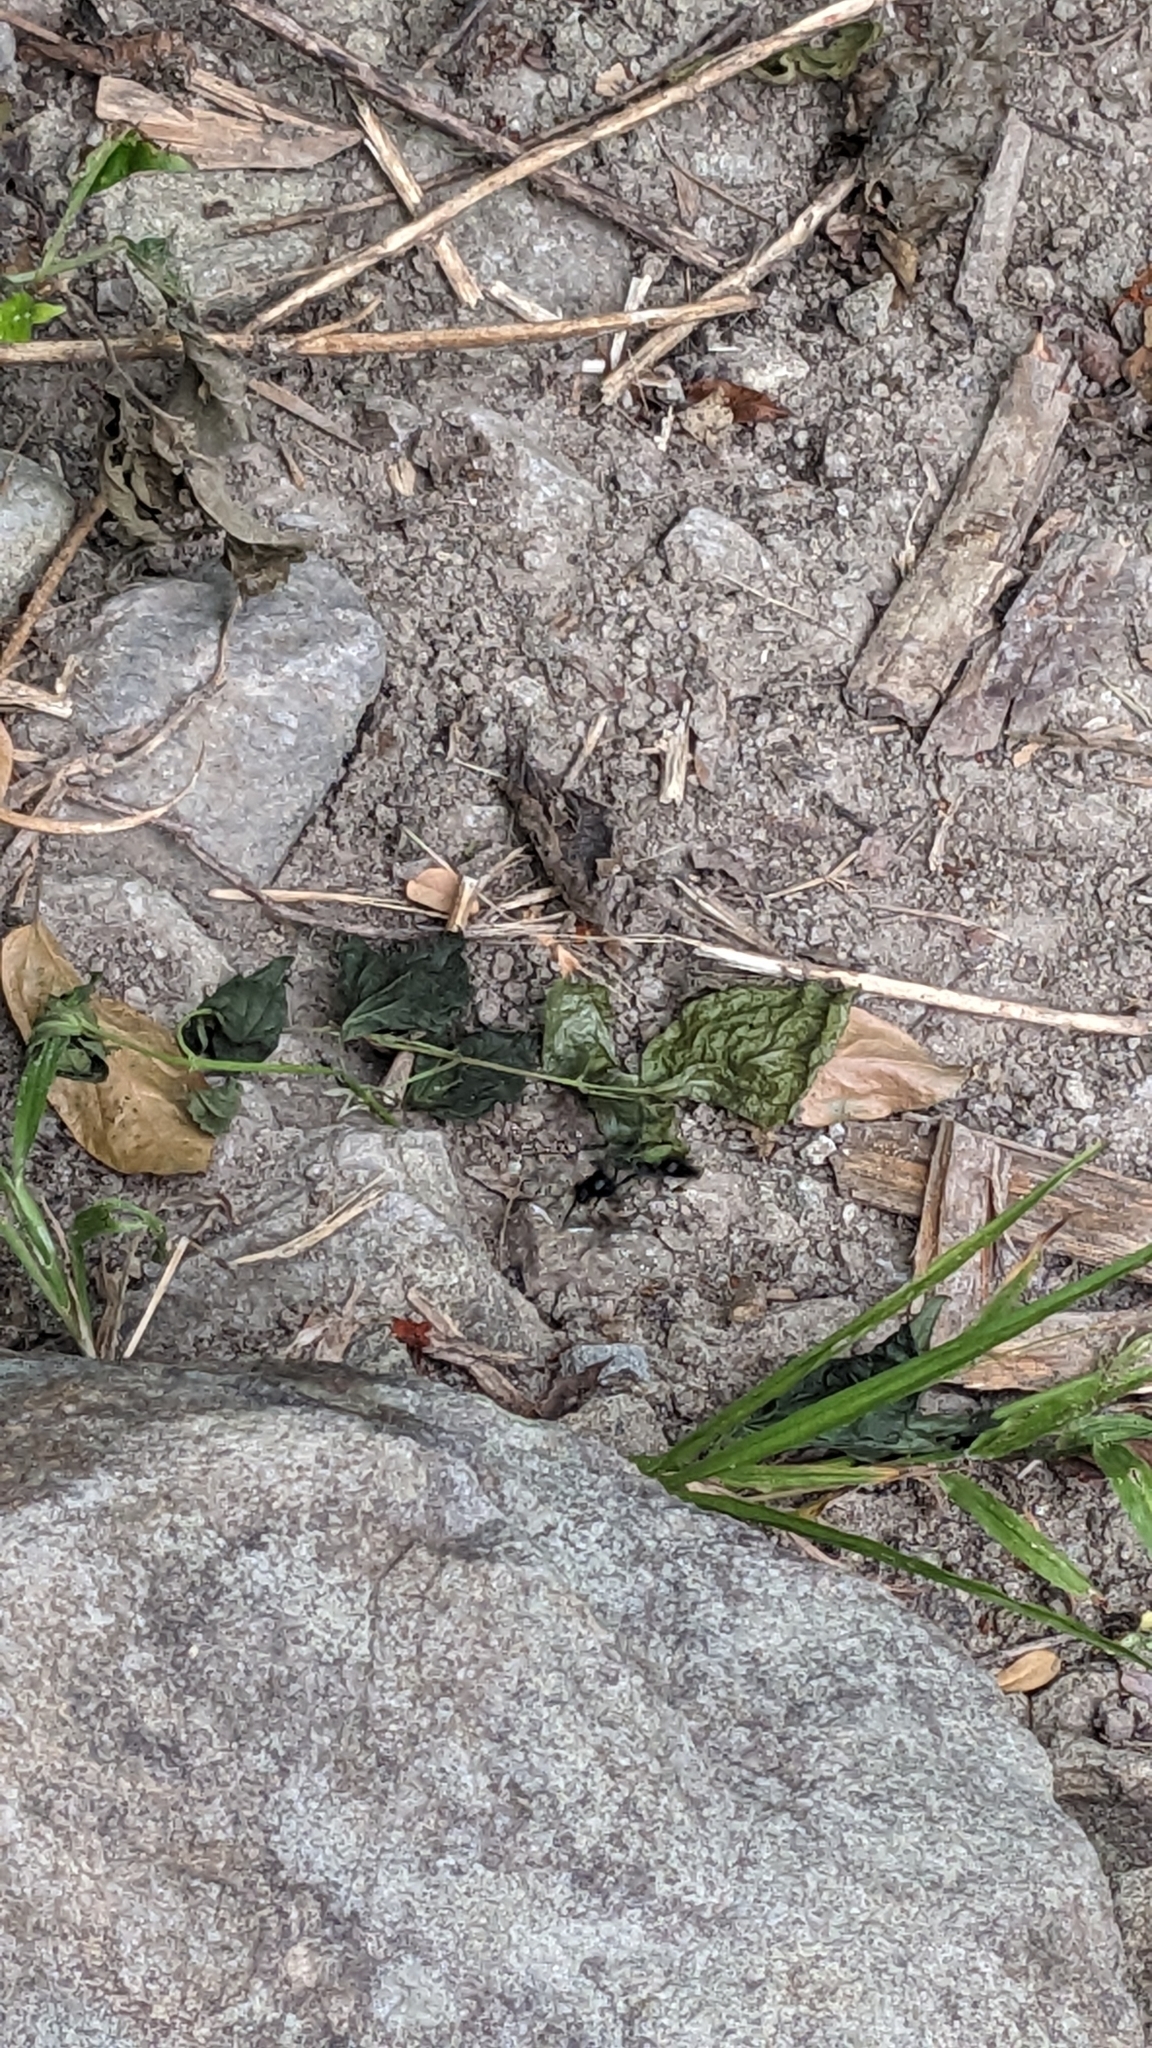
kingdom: Animalia
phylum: Arthropoda
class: Insecta
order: Hymenoptera
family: Eumenidae
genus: Phimenes
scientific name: Phimenes curvatus
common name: Black delta vespid wasp
